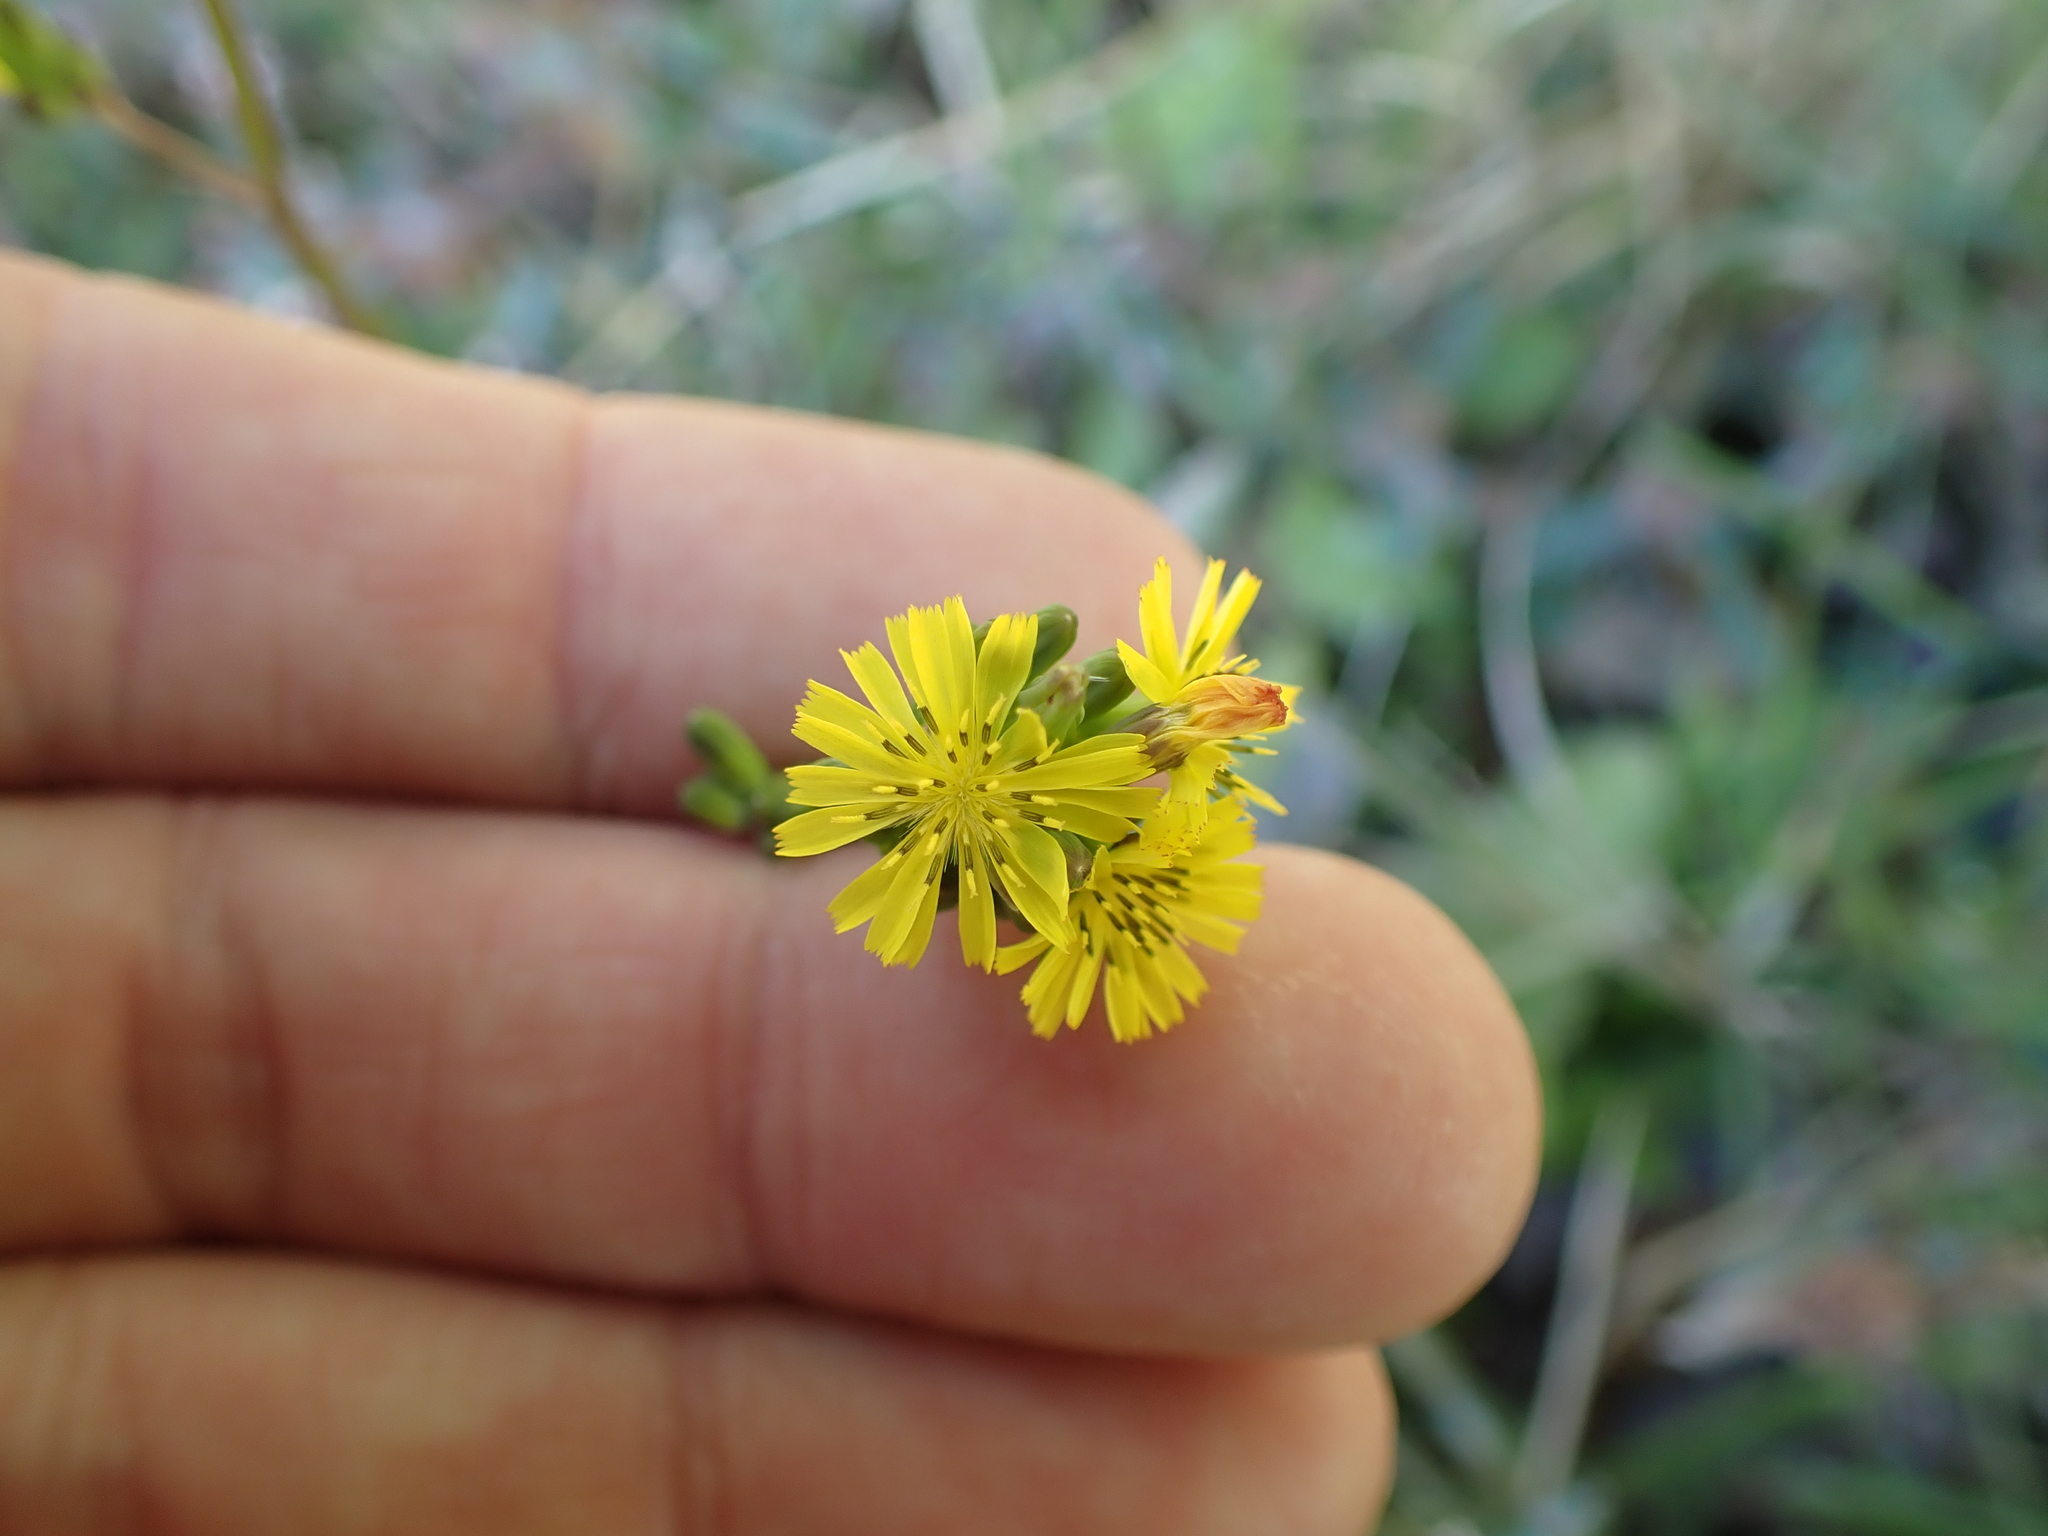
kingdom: Plantae
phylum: Tracheophyta
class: Magnoliopsida
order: Asterales
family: Asteraceae
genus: Youngia
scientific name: Youngia japonica
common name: Oriental false hawksbeard
